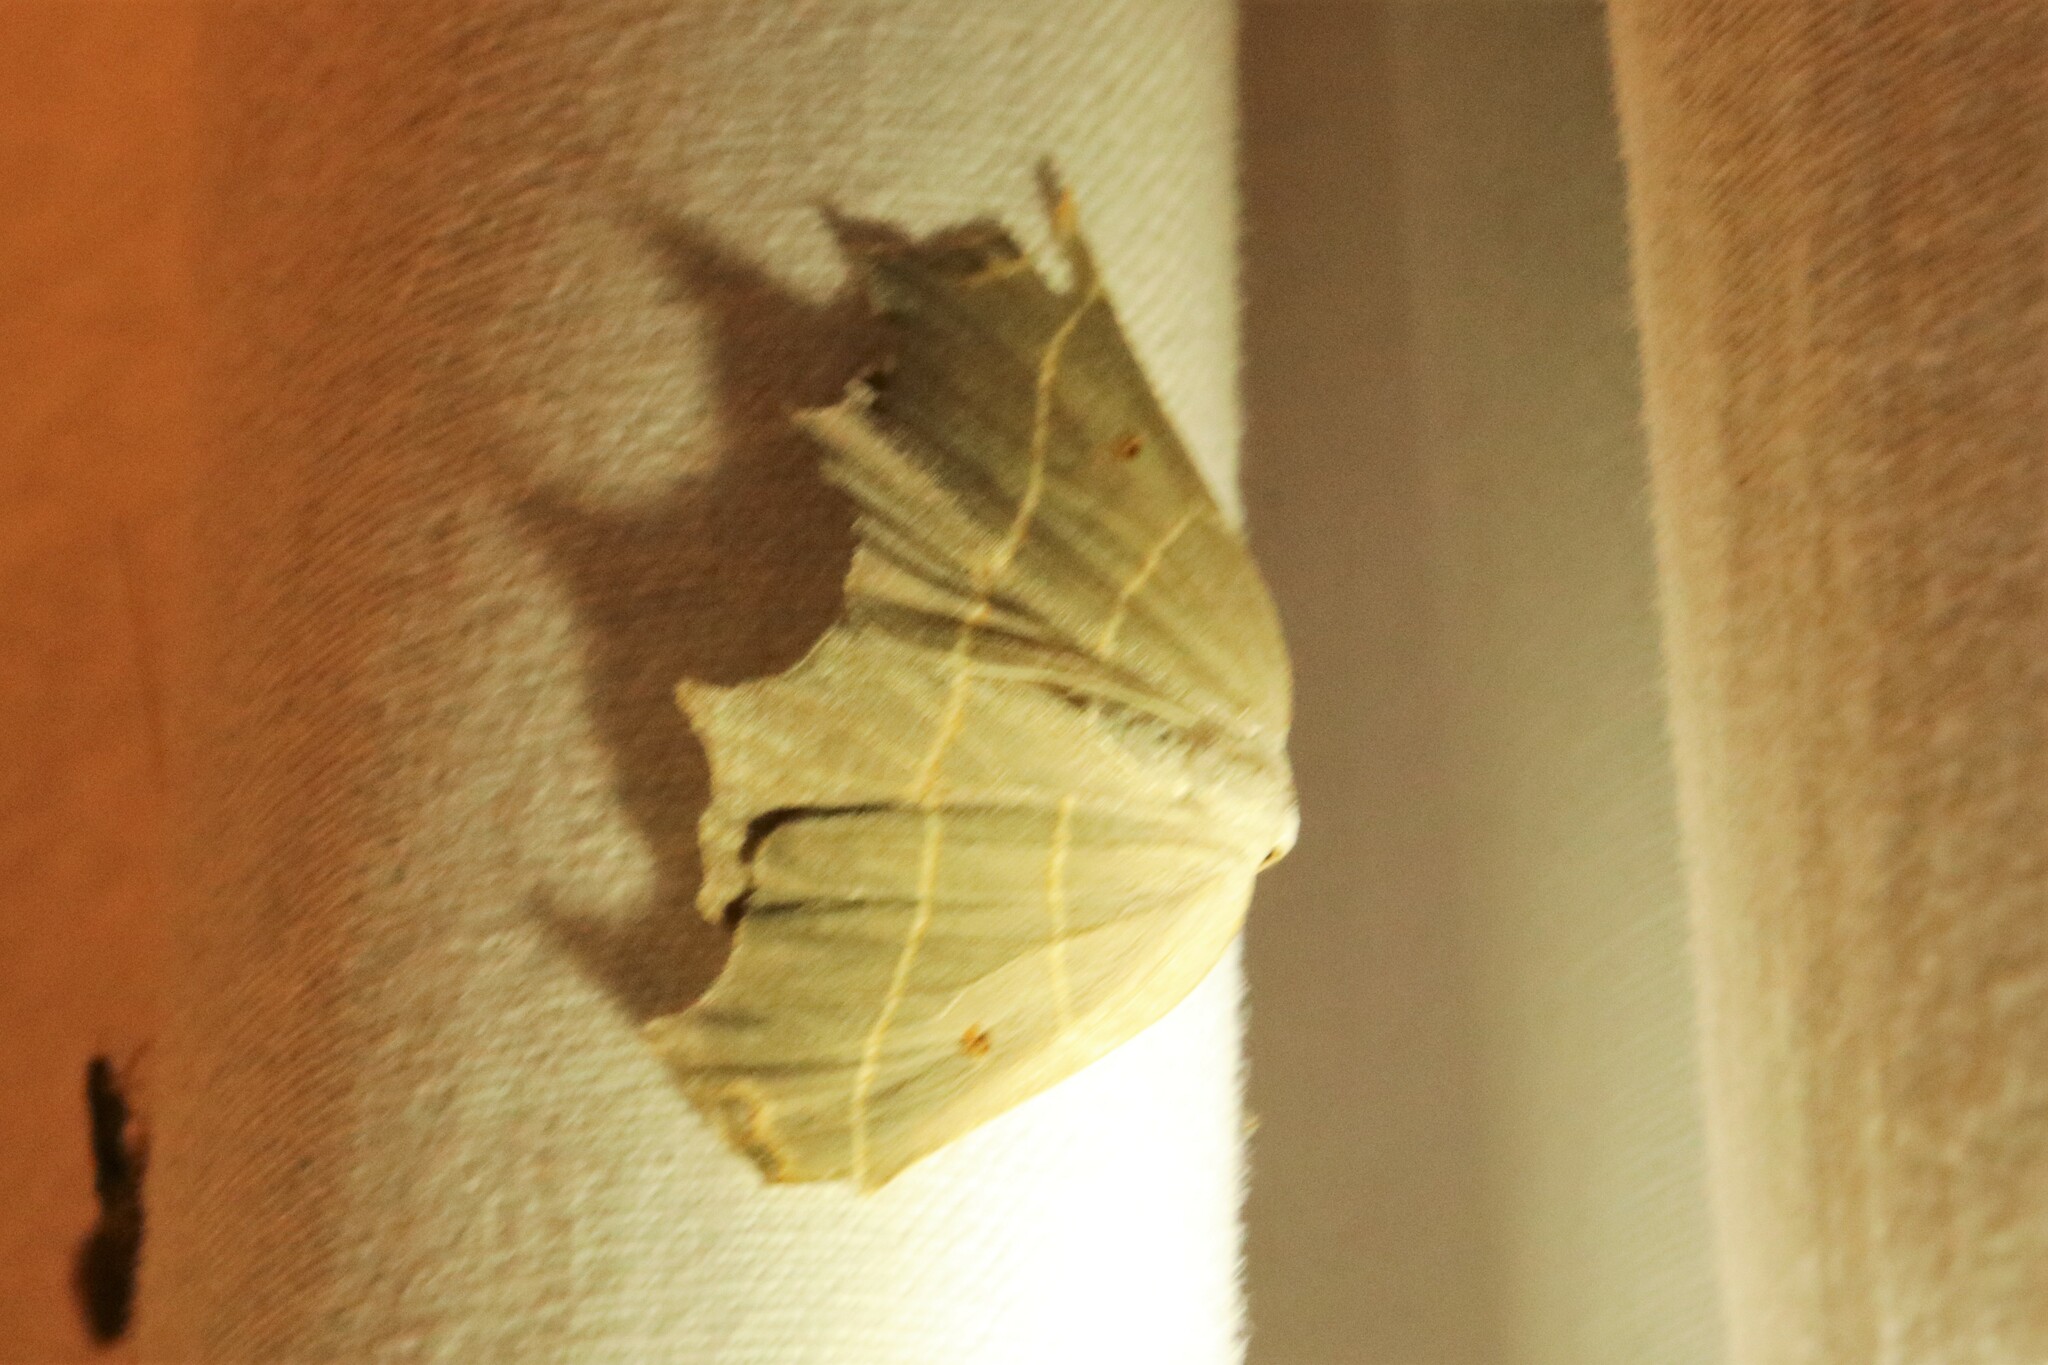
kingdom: Animalia
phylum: Arthropoda
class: Insecta
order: Lepidoptera
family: Geometridae
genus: Metanema
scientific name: Metanema inatomaria
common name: Pale metanema
